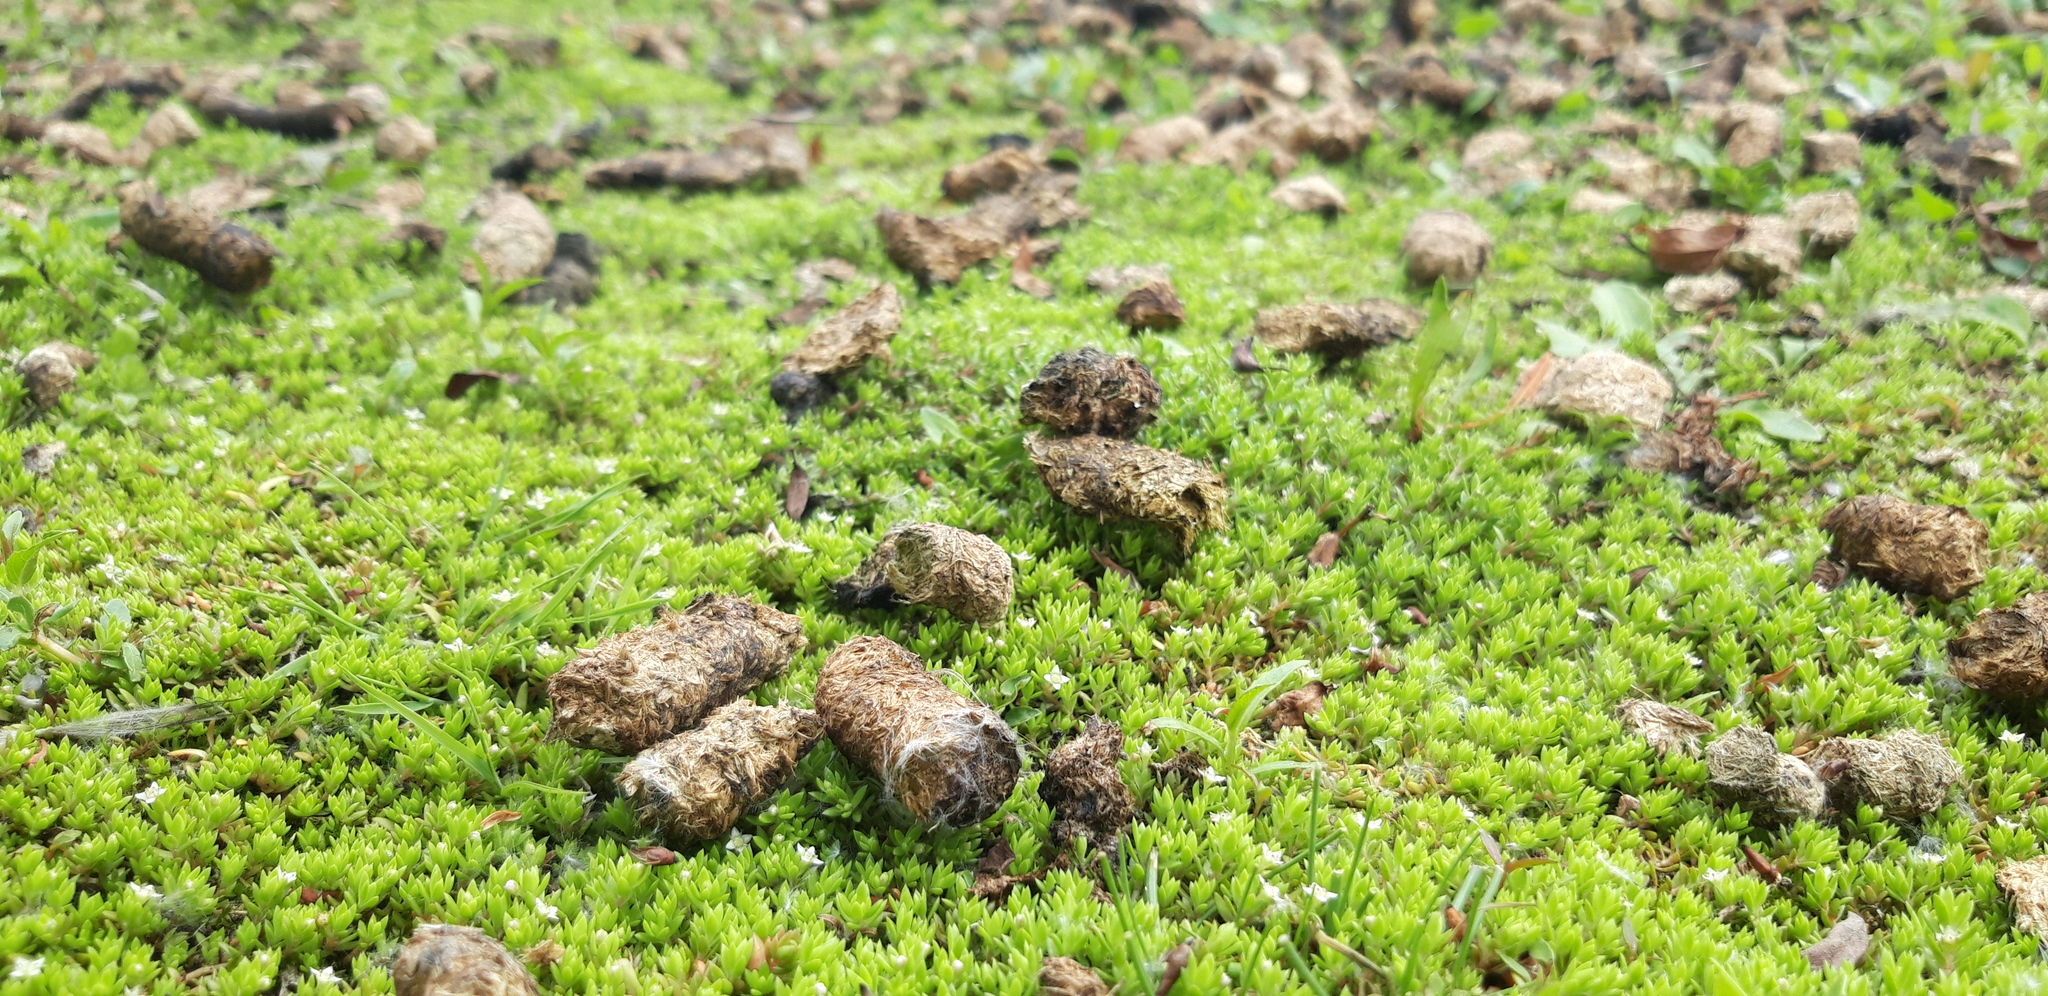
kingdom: Plantae
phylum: Tracheophyta
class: Magnoliopsida
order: Saxifragales
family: Crassulaceae
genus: Crassula
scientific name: Crassula helmsii
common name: New zealand pigmyweed
